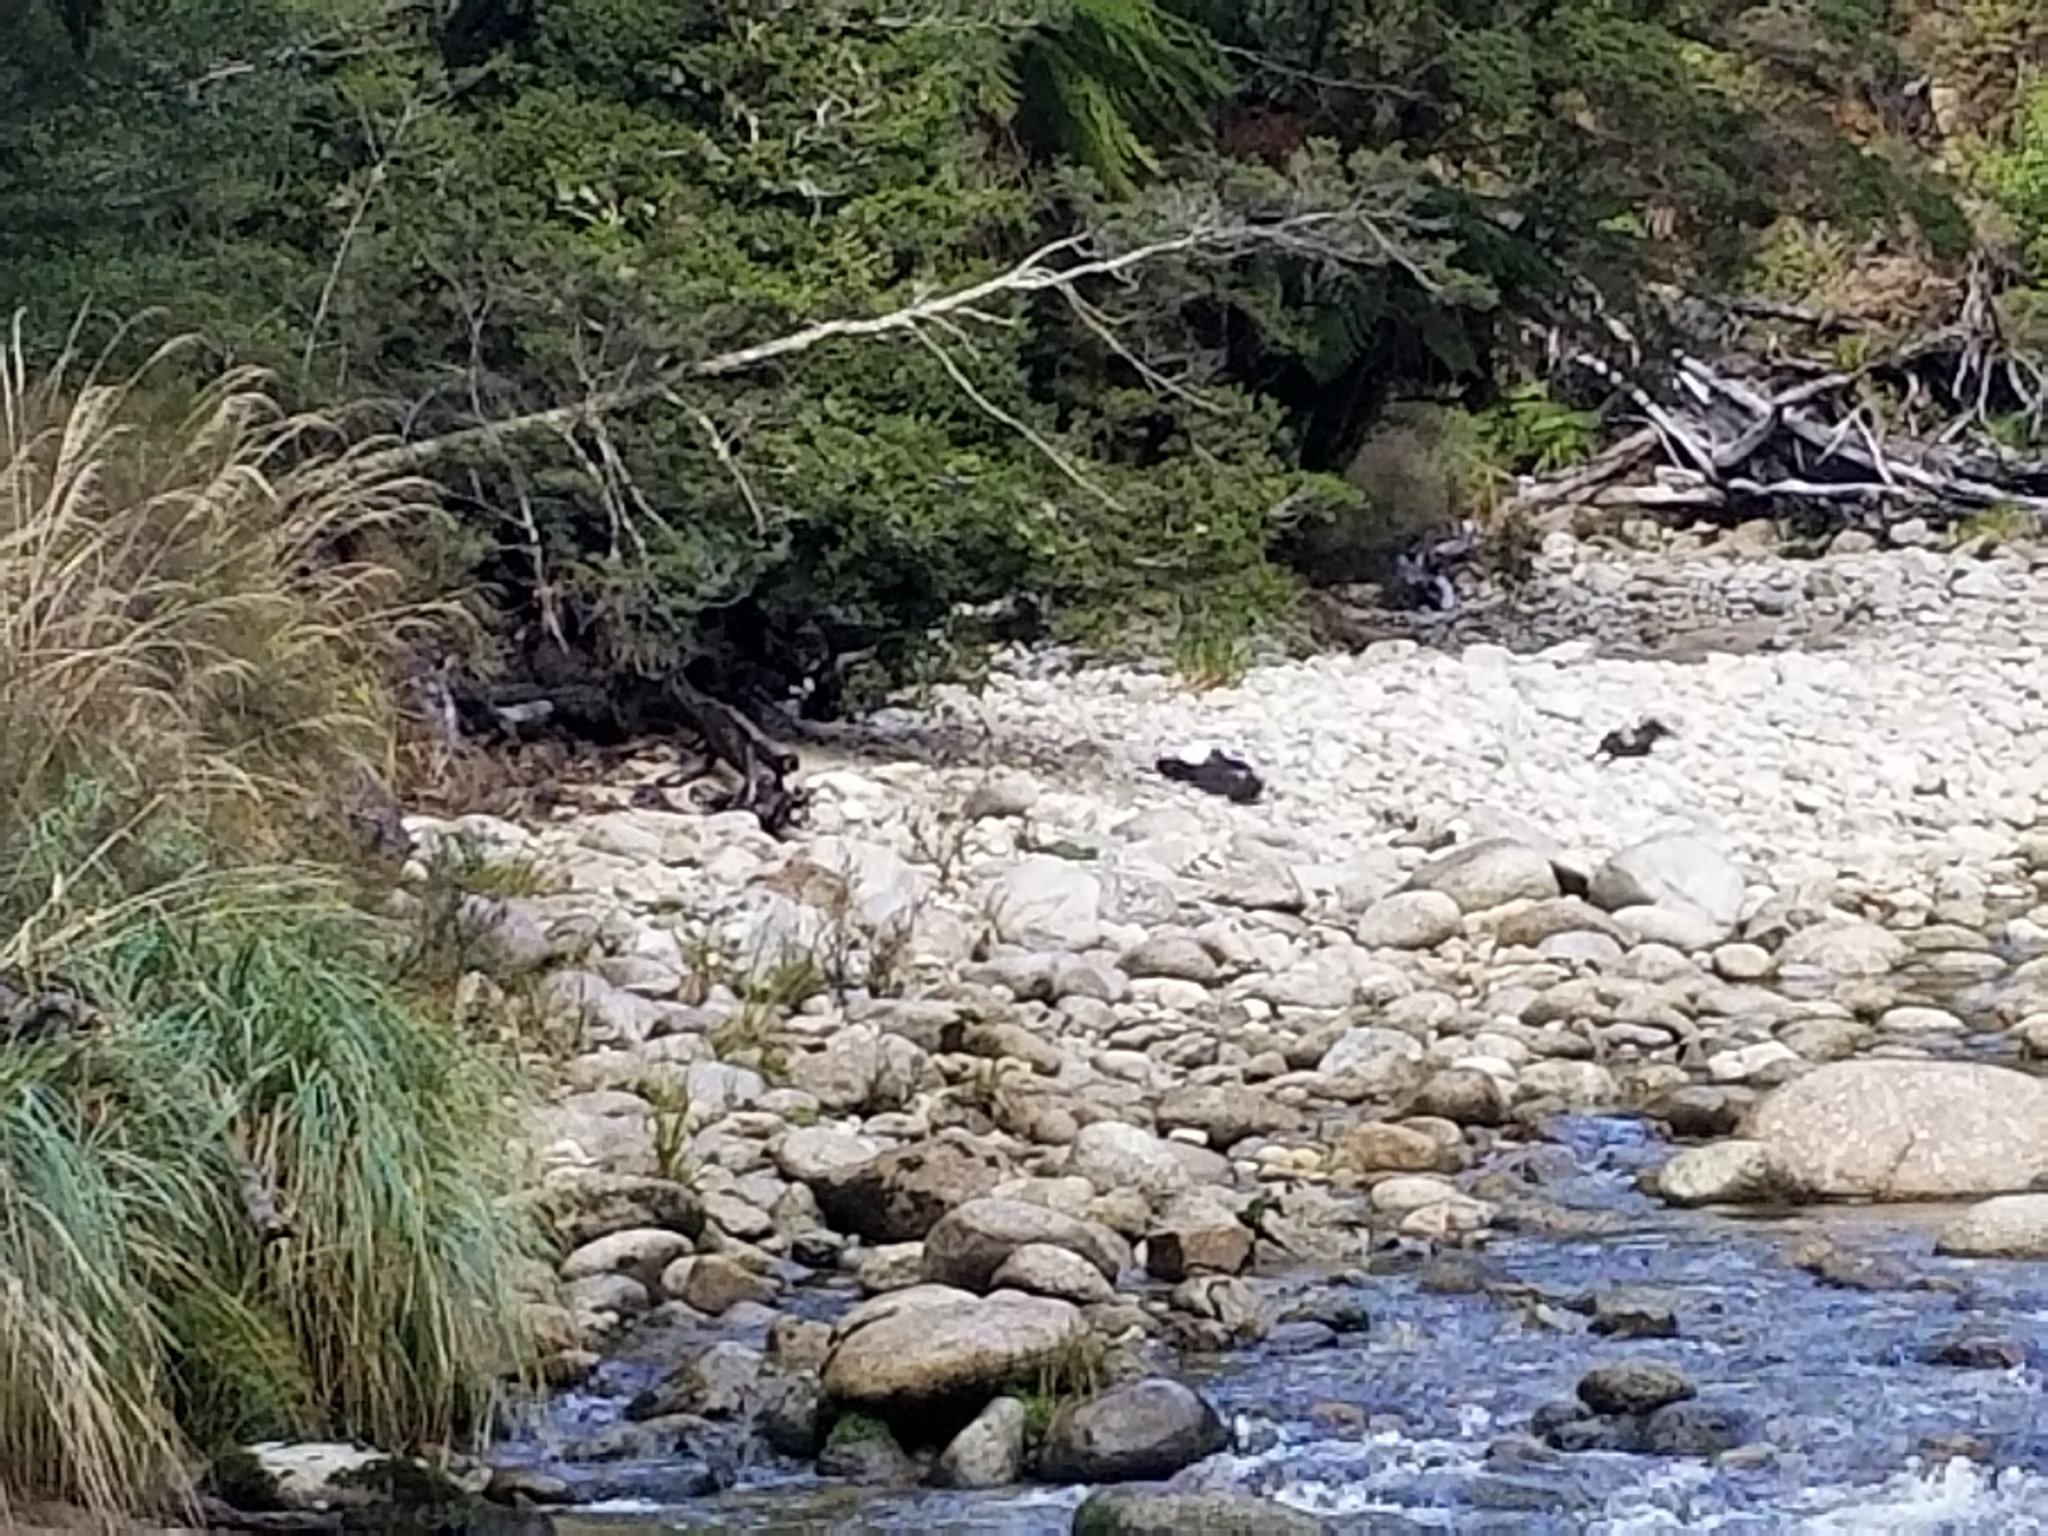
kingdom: Animalia
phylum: Chordata
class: Aves
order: Anseriformes
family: Anatidae
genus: Tadorna
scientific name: Tadorna variegata
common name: Paradise shelduck
